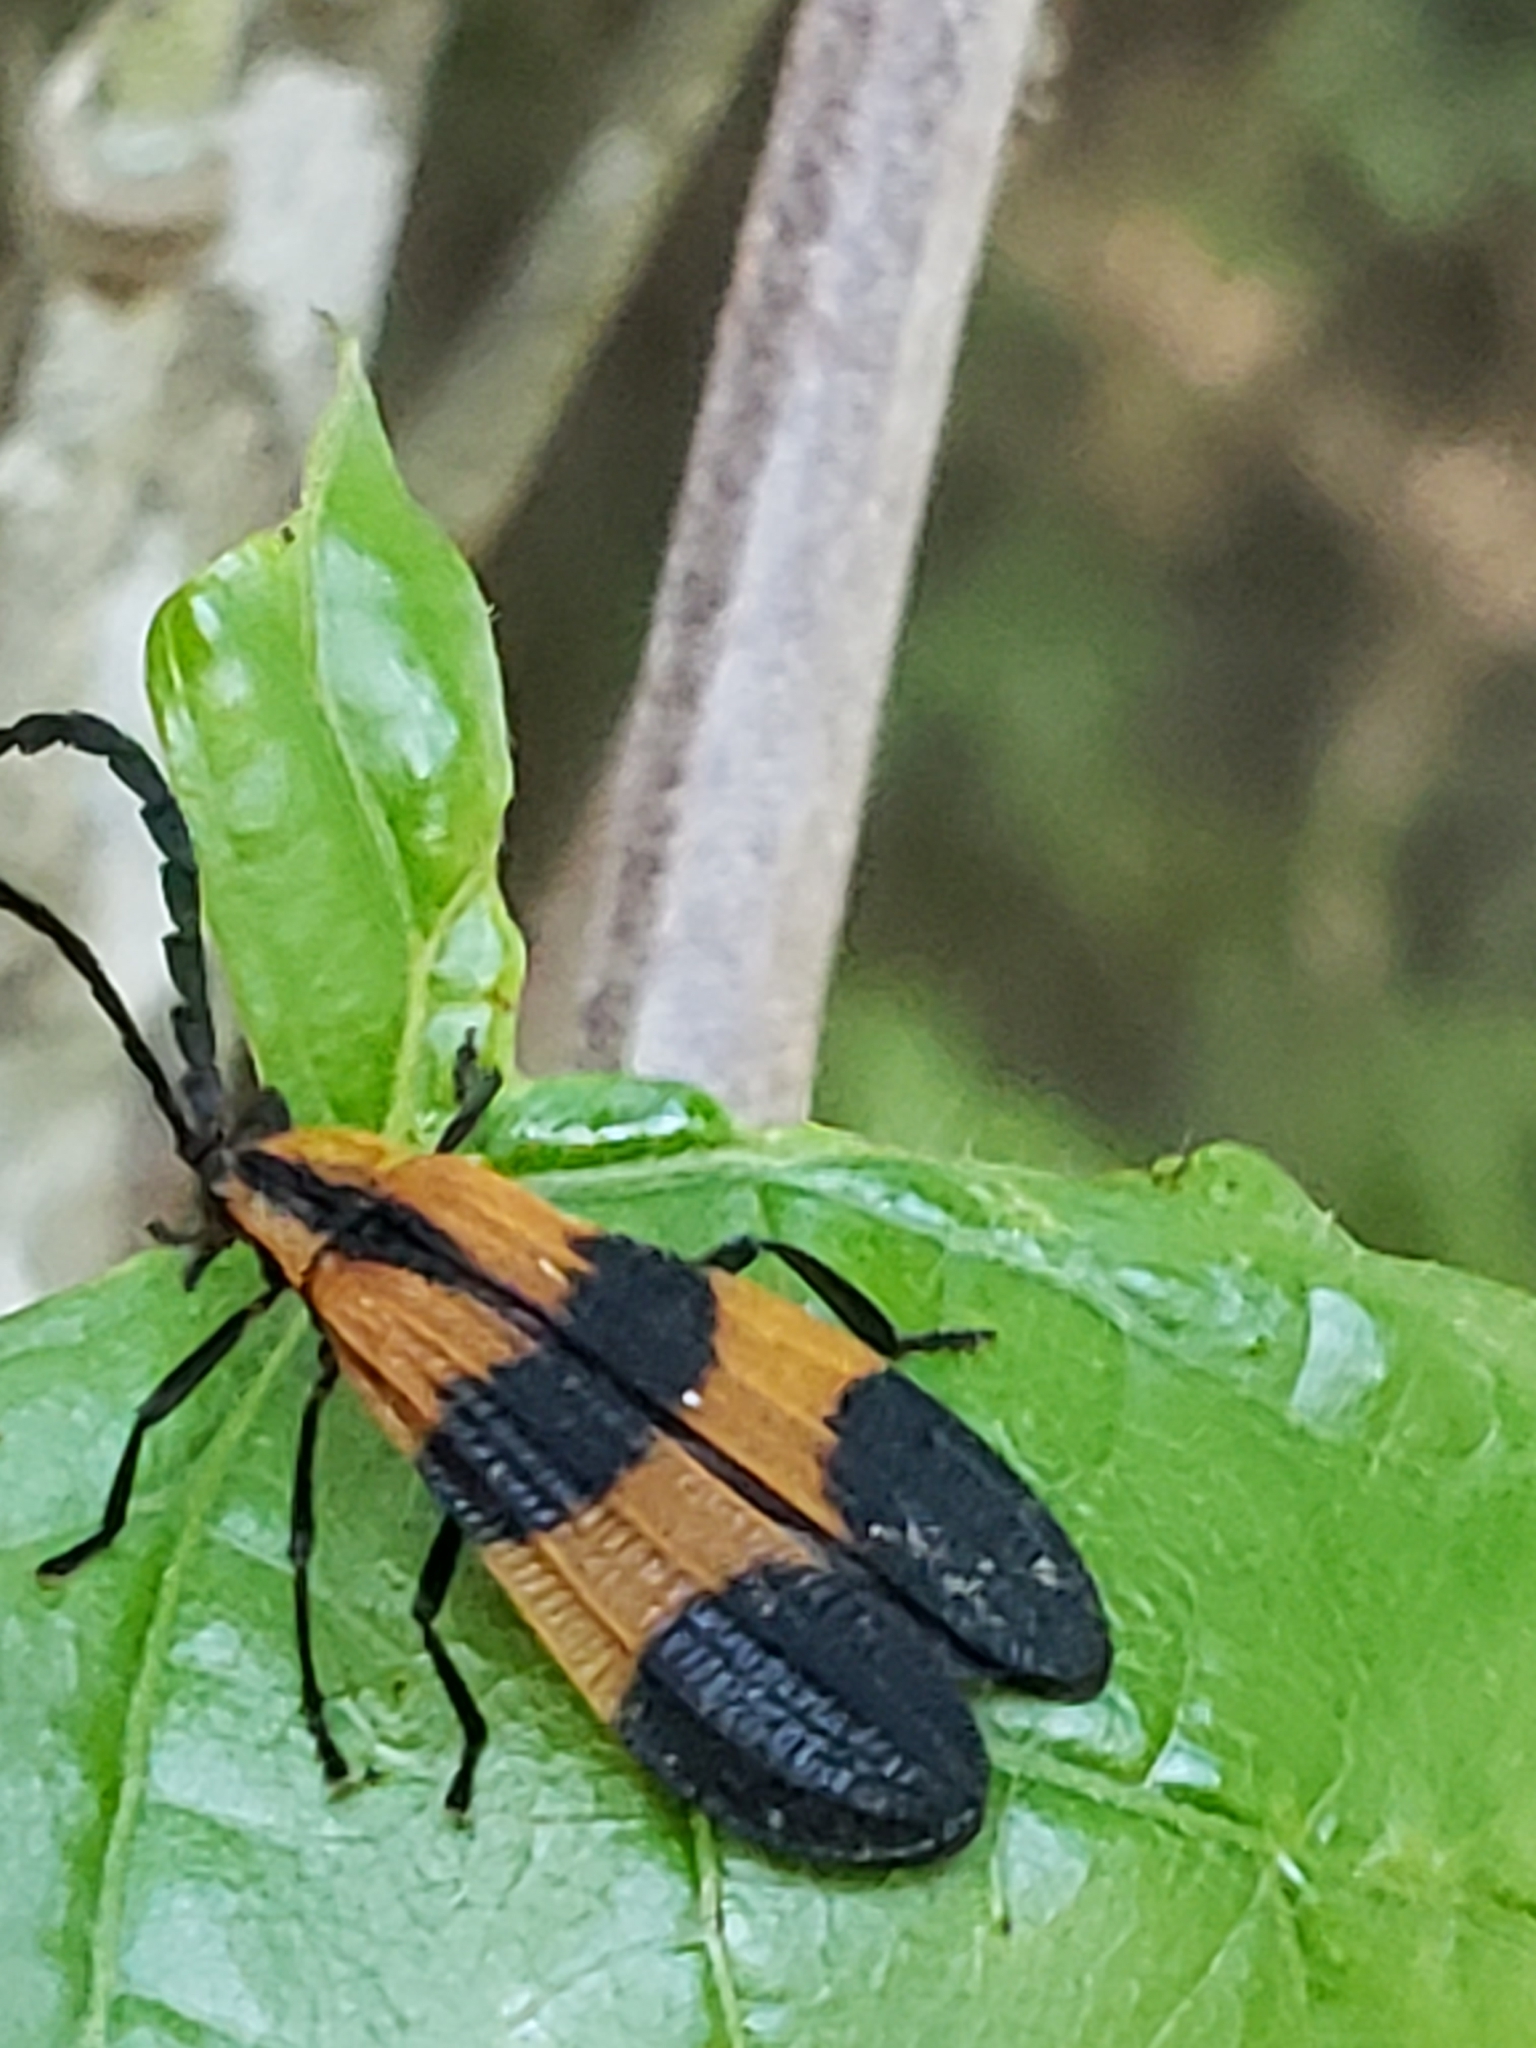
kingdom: Animalia
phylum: Arthropoda
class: Insecta
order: Coleoptera
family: Lycidae
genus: Calopteron
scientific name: Calopteron discrepans
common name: Banded net-winged beetle
